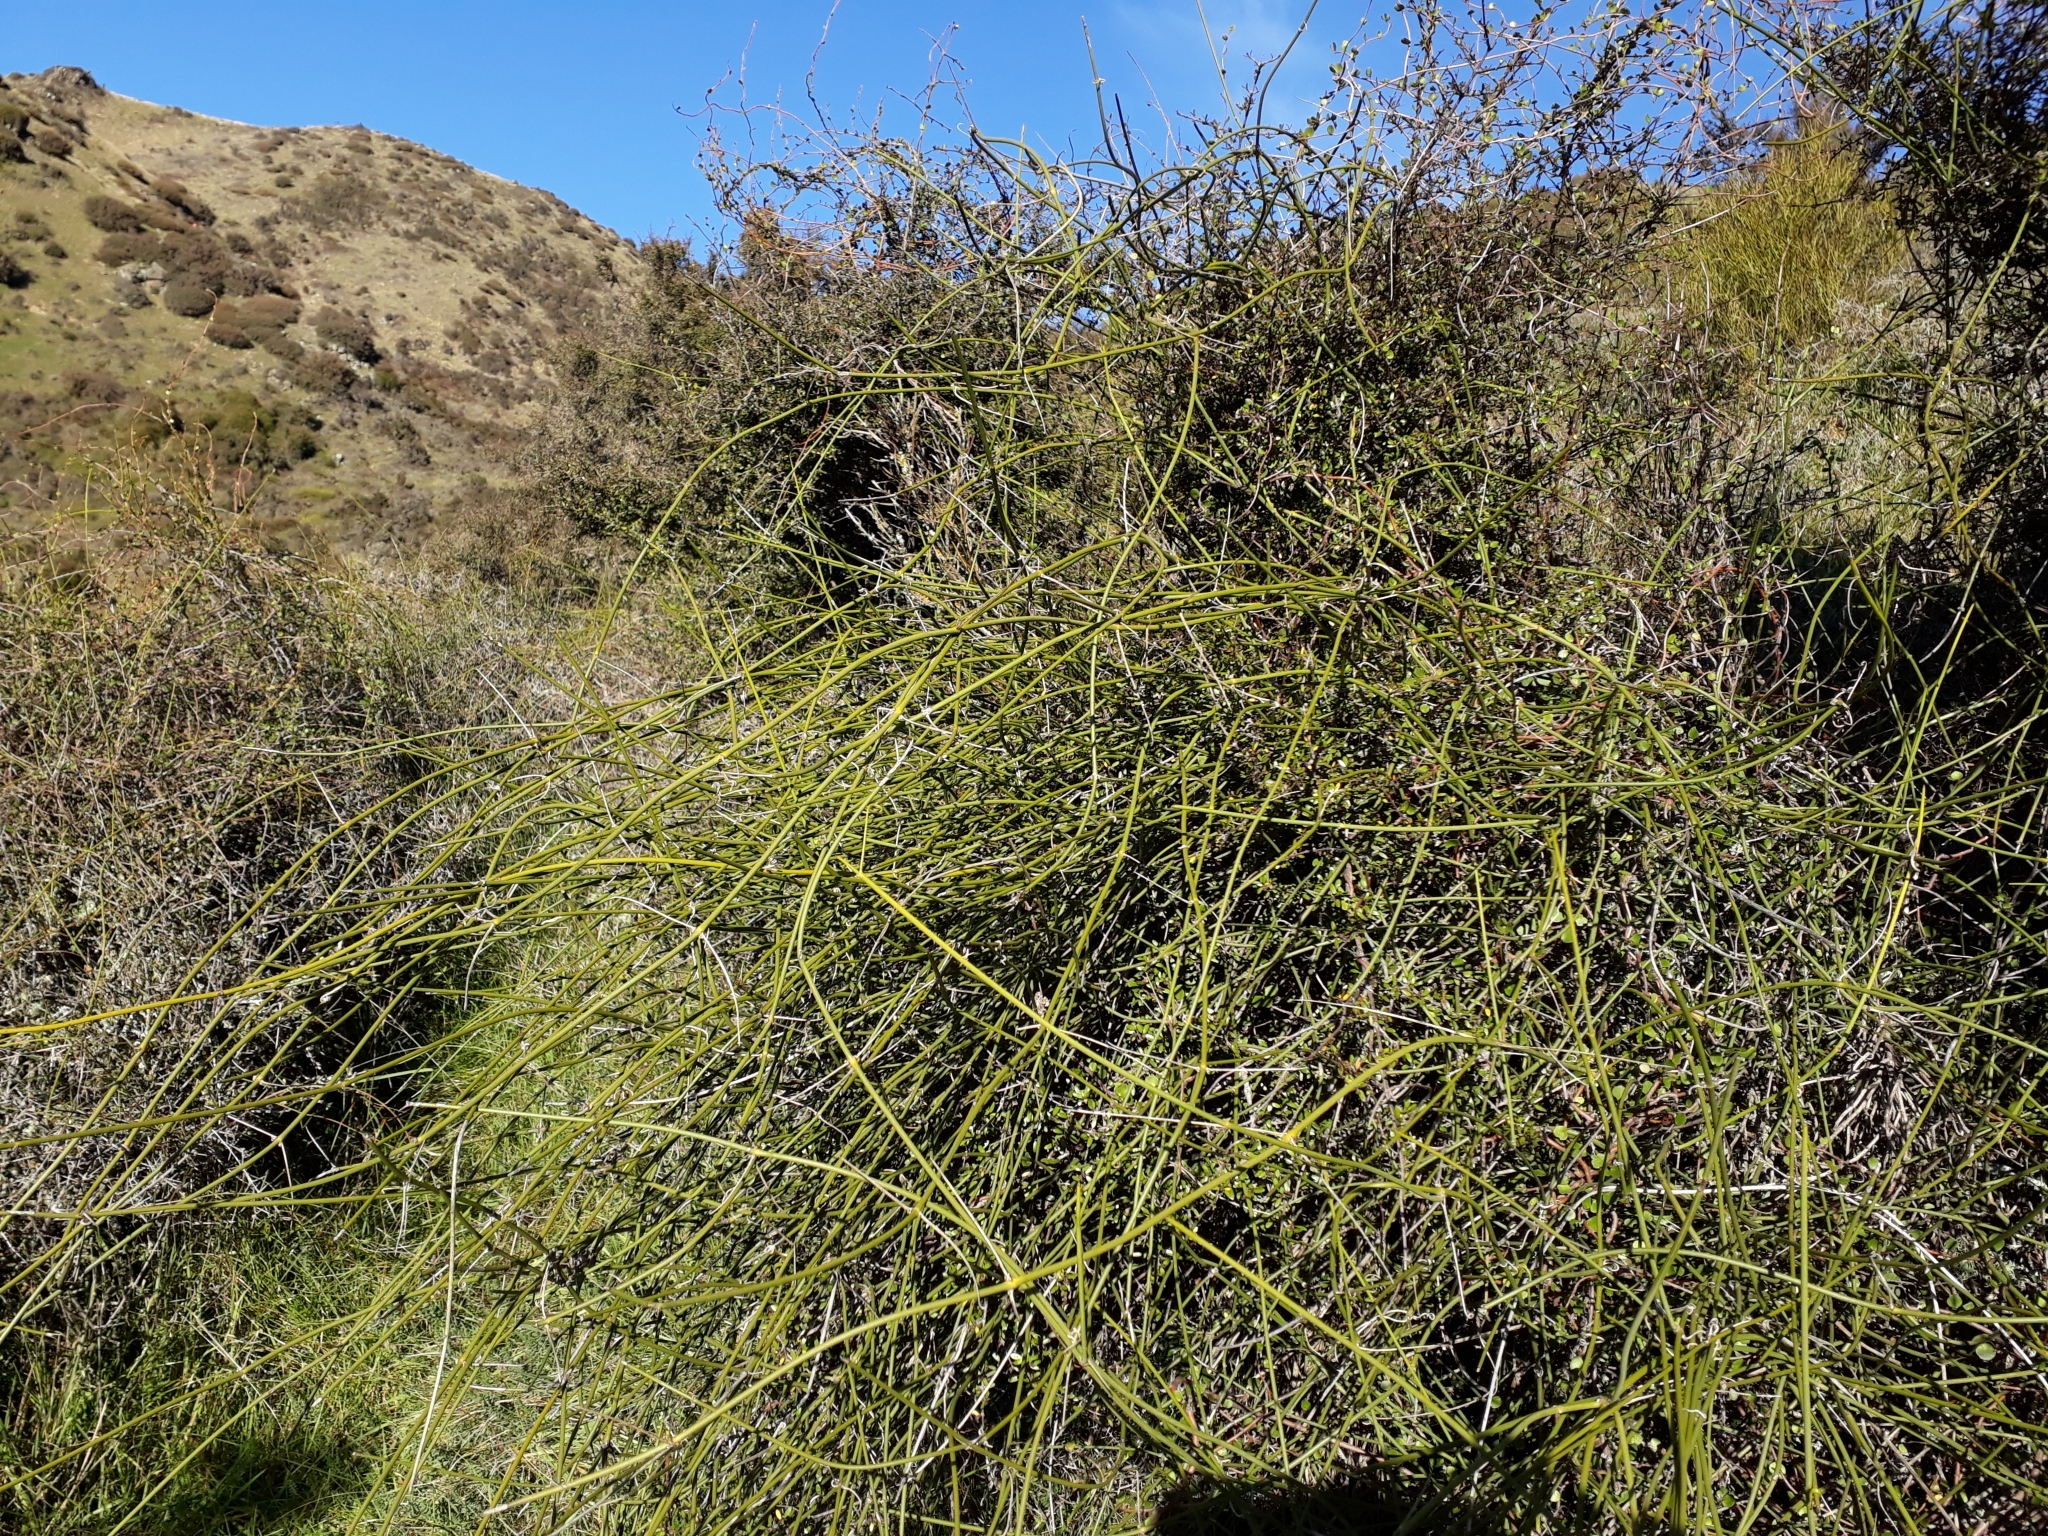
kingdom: Plantae
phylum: Tracheophyta
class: Magnoliopsida
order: Ranunculales
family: Ranunculaceae
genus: Clematis
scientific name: Clematis afoliata
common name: Rush-stem clematis
